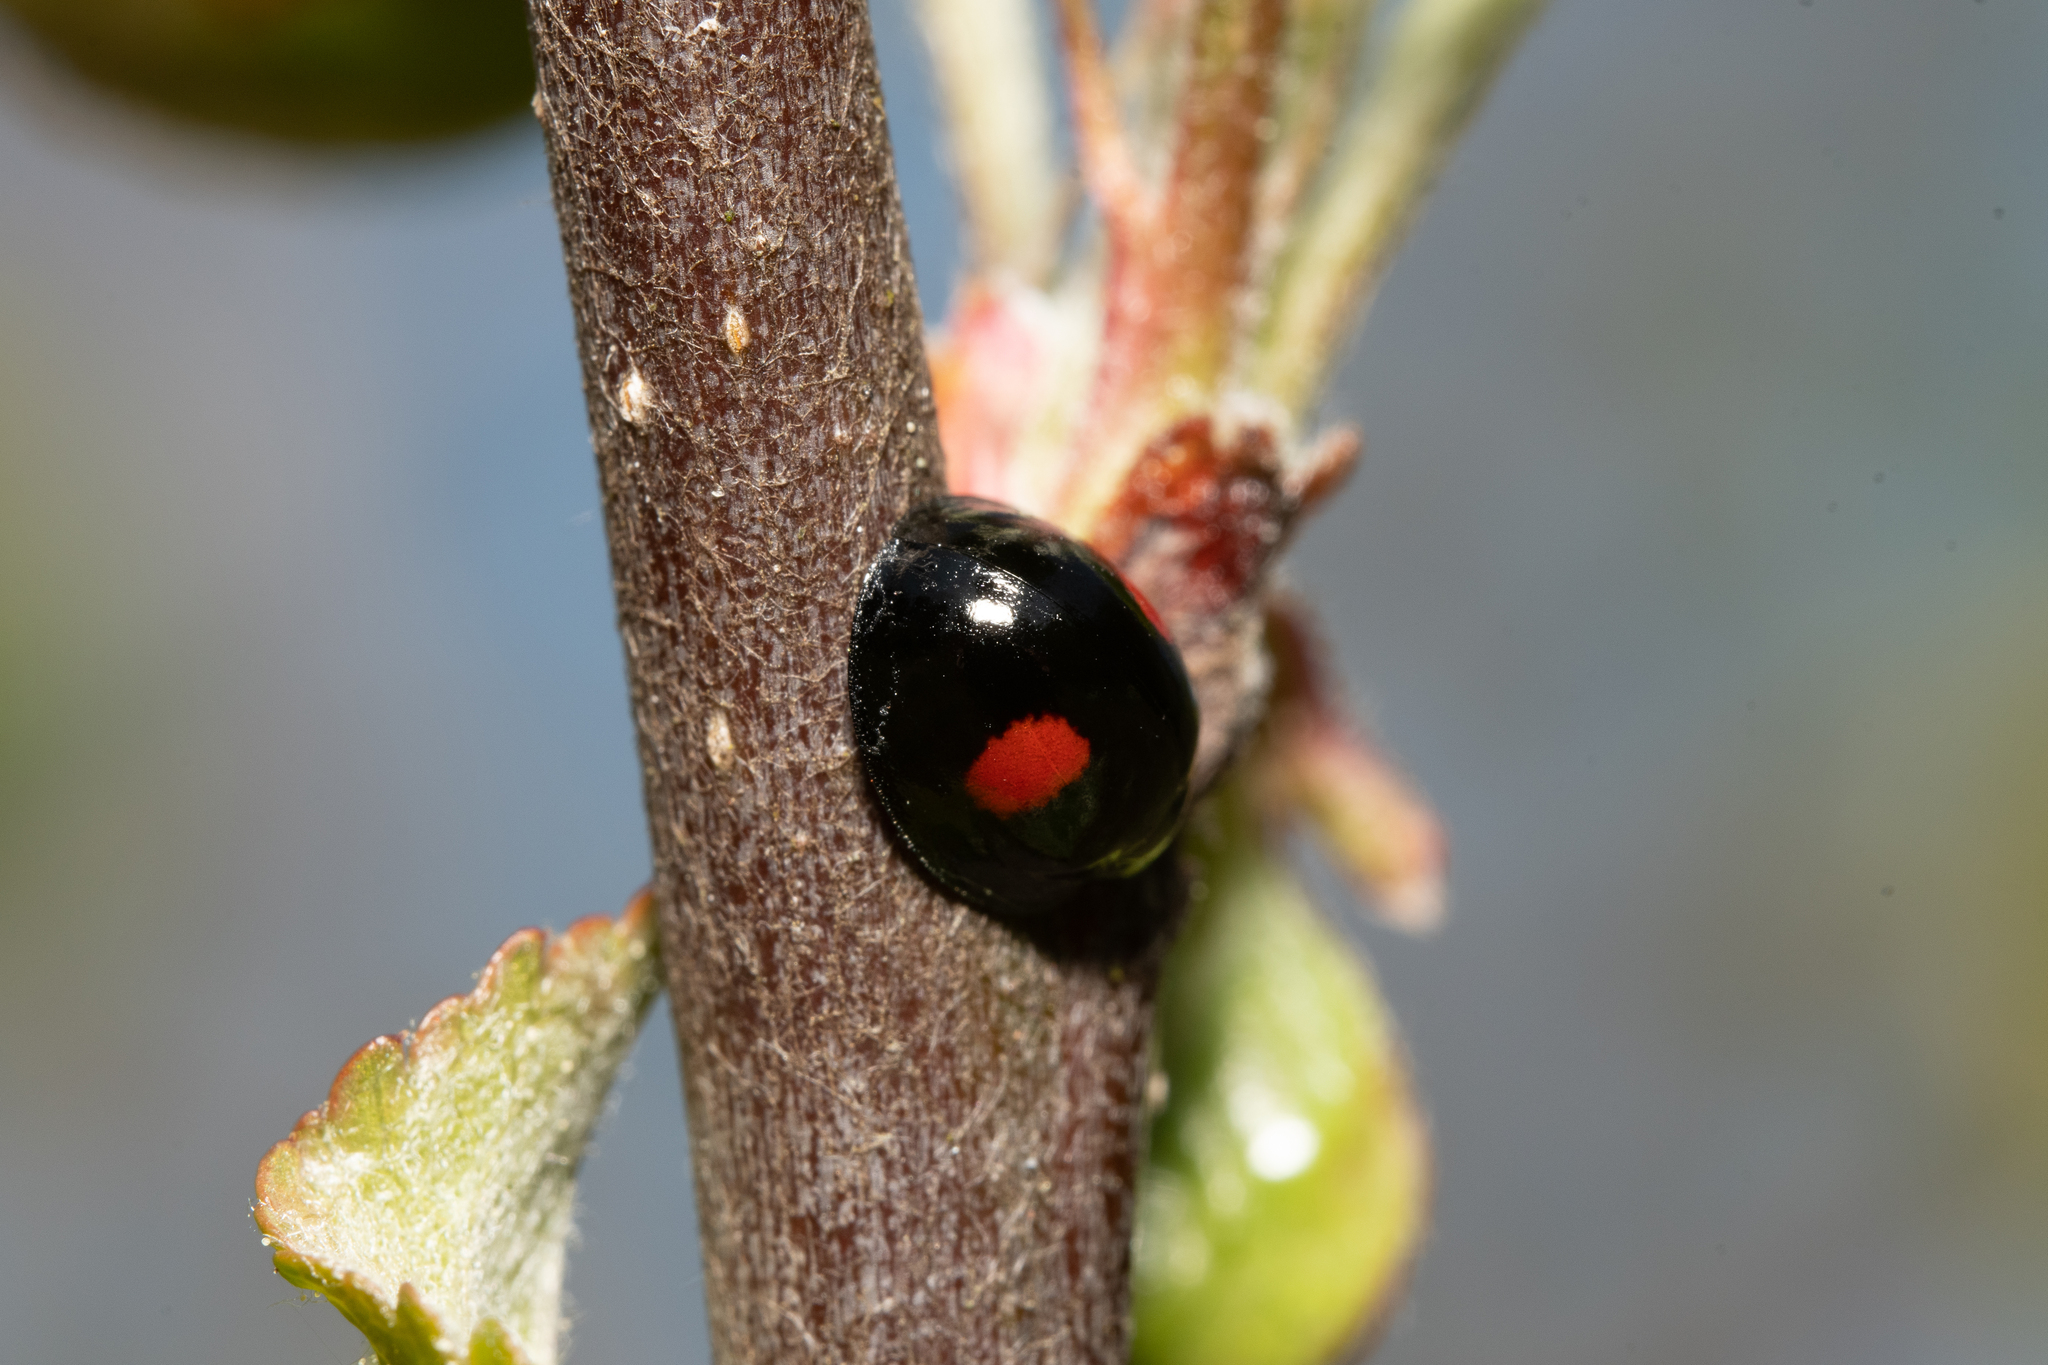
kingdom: Animalia
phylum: Arthropoda
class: Insecta
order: Coleoptera
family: Coccinellidae
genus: Chilocorus
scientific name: Chilocorus renipustulatus
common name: Kidney-spot ladybird
